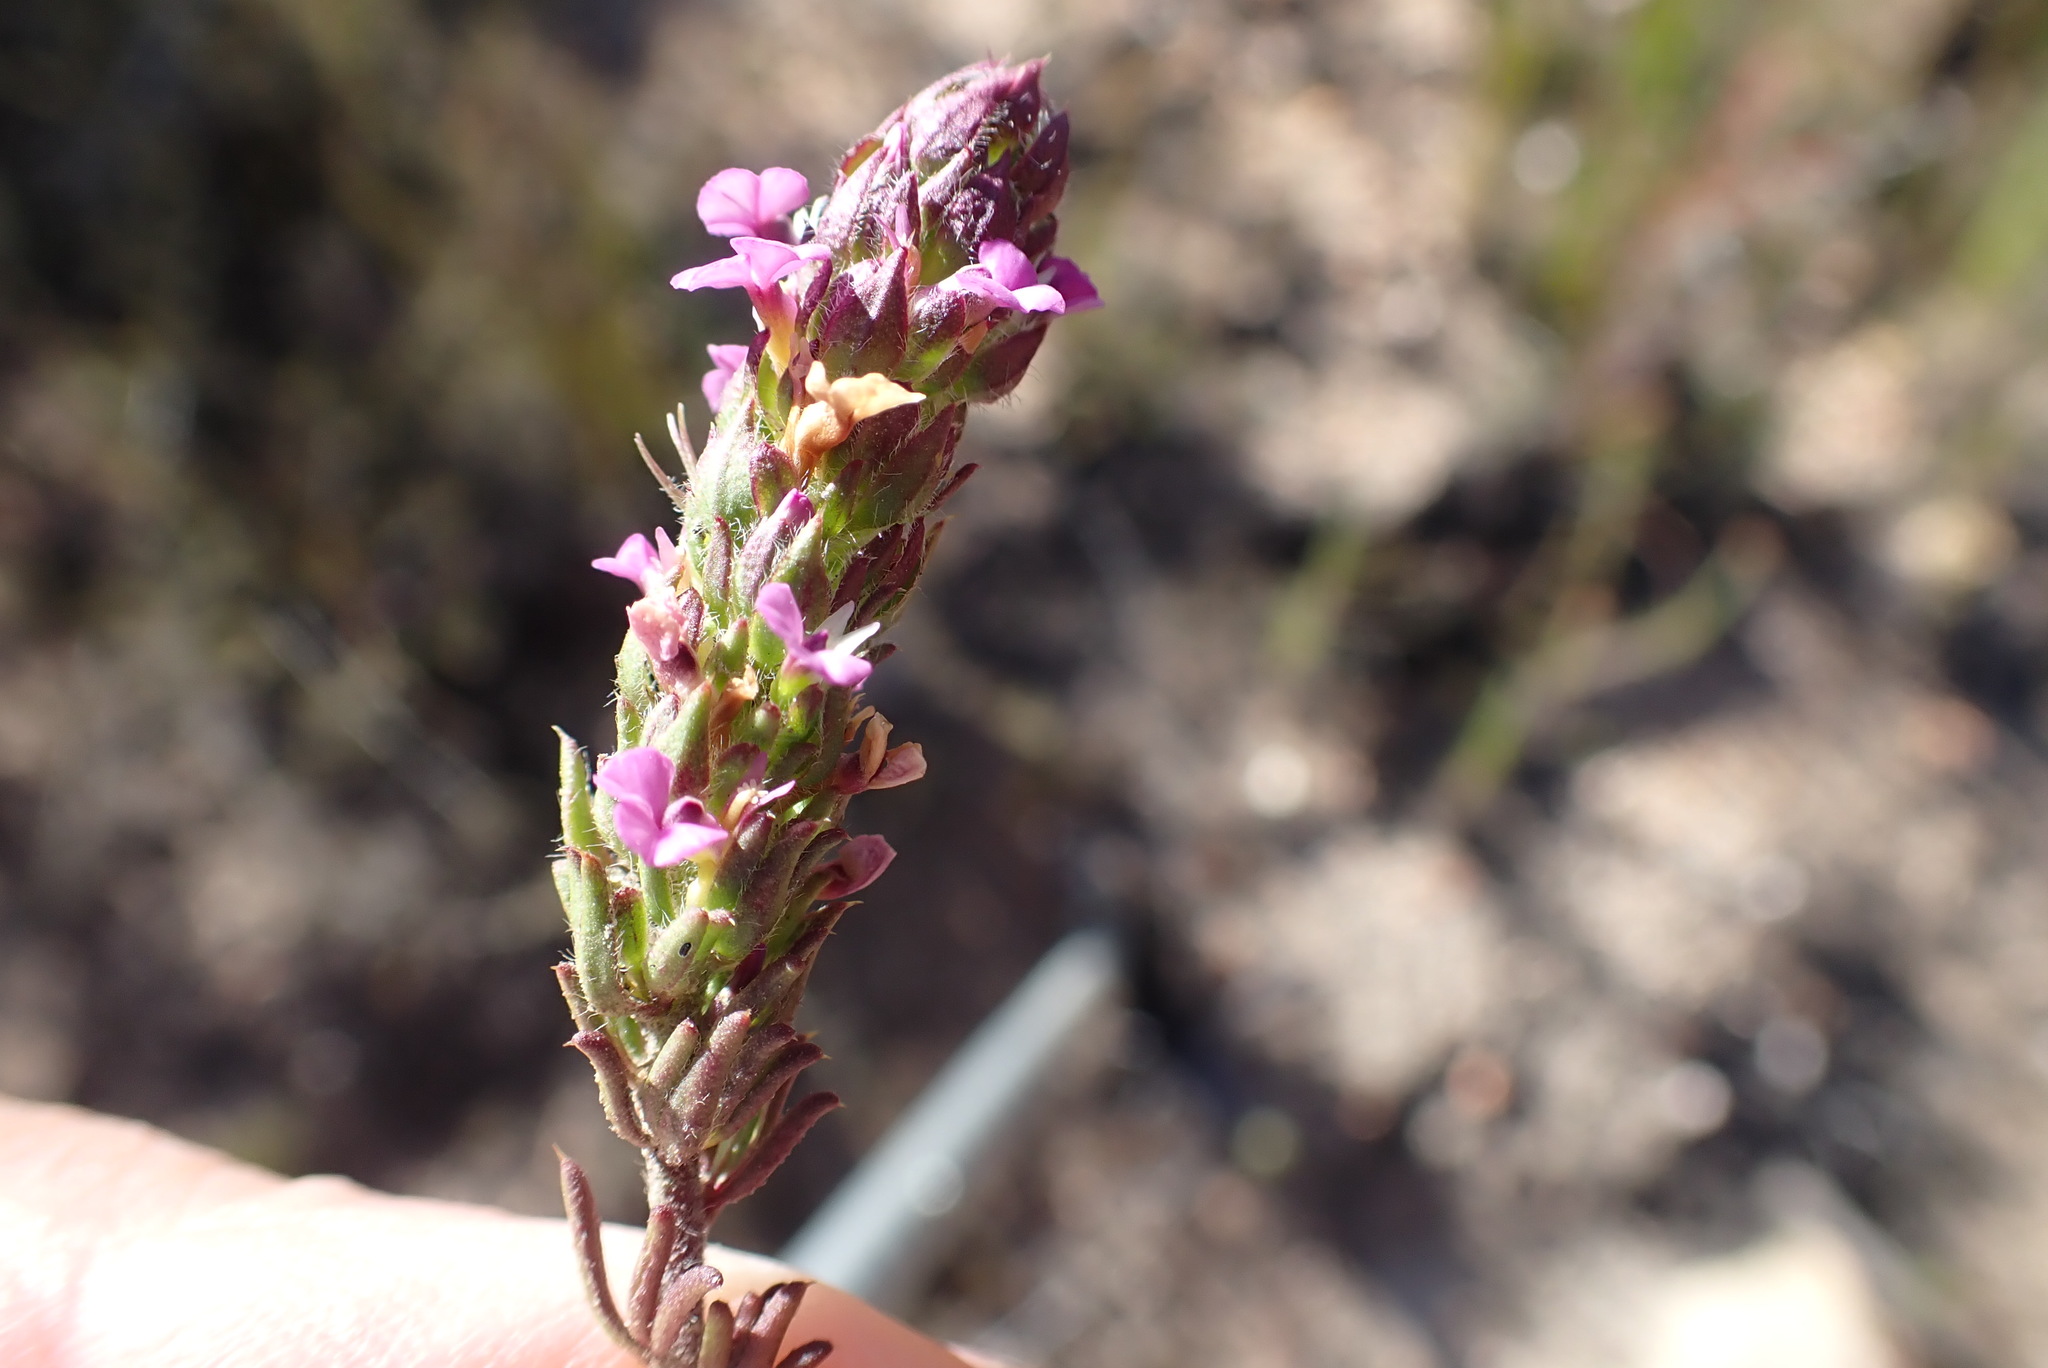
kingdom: Plantae
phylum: Tracheophyta
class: Magnoliopsida
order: Fabales
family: Polygalaceae
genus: Muraltia
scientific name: Muraltia alopecuroides
